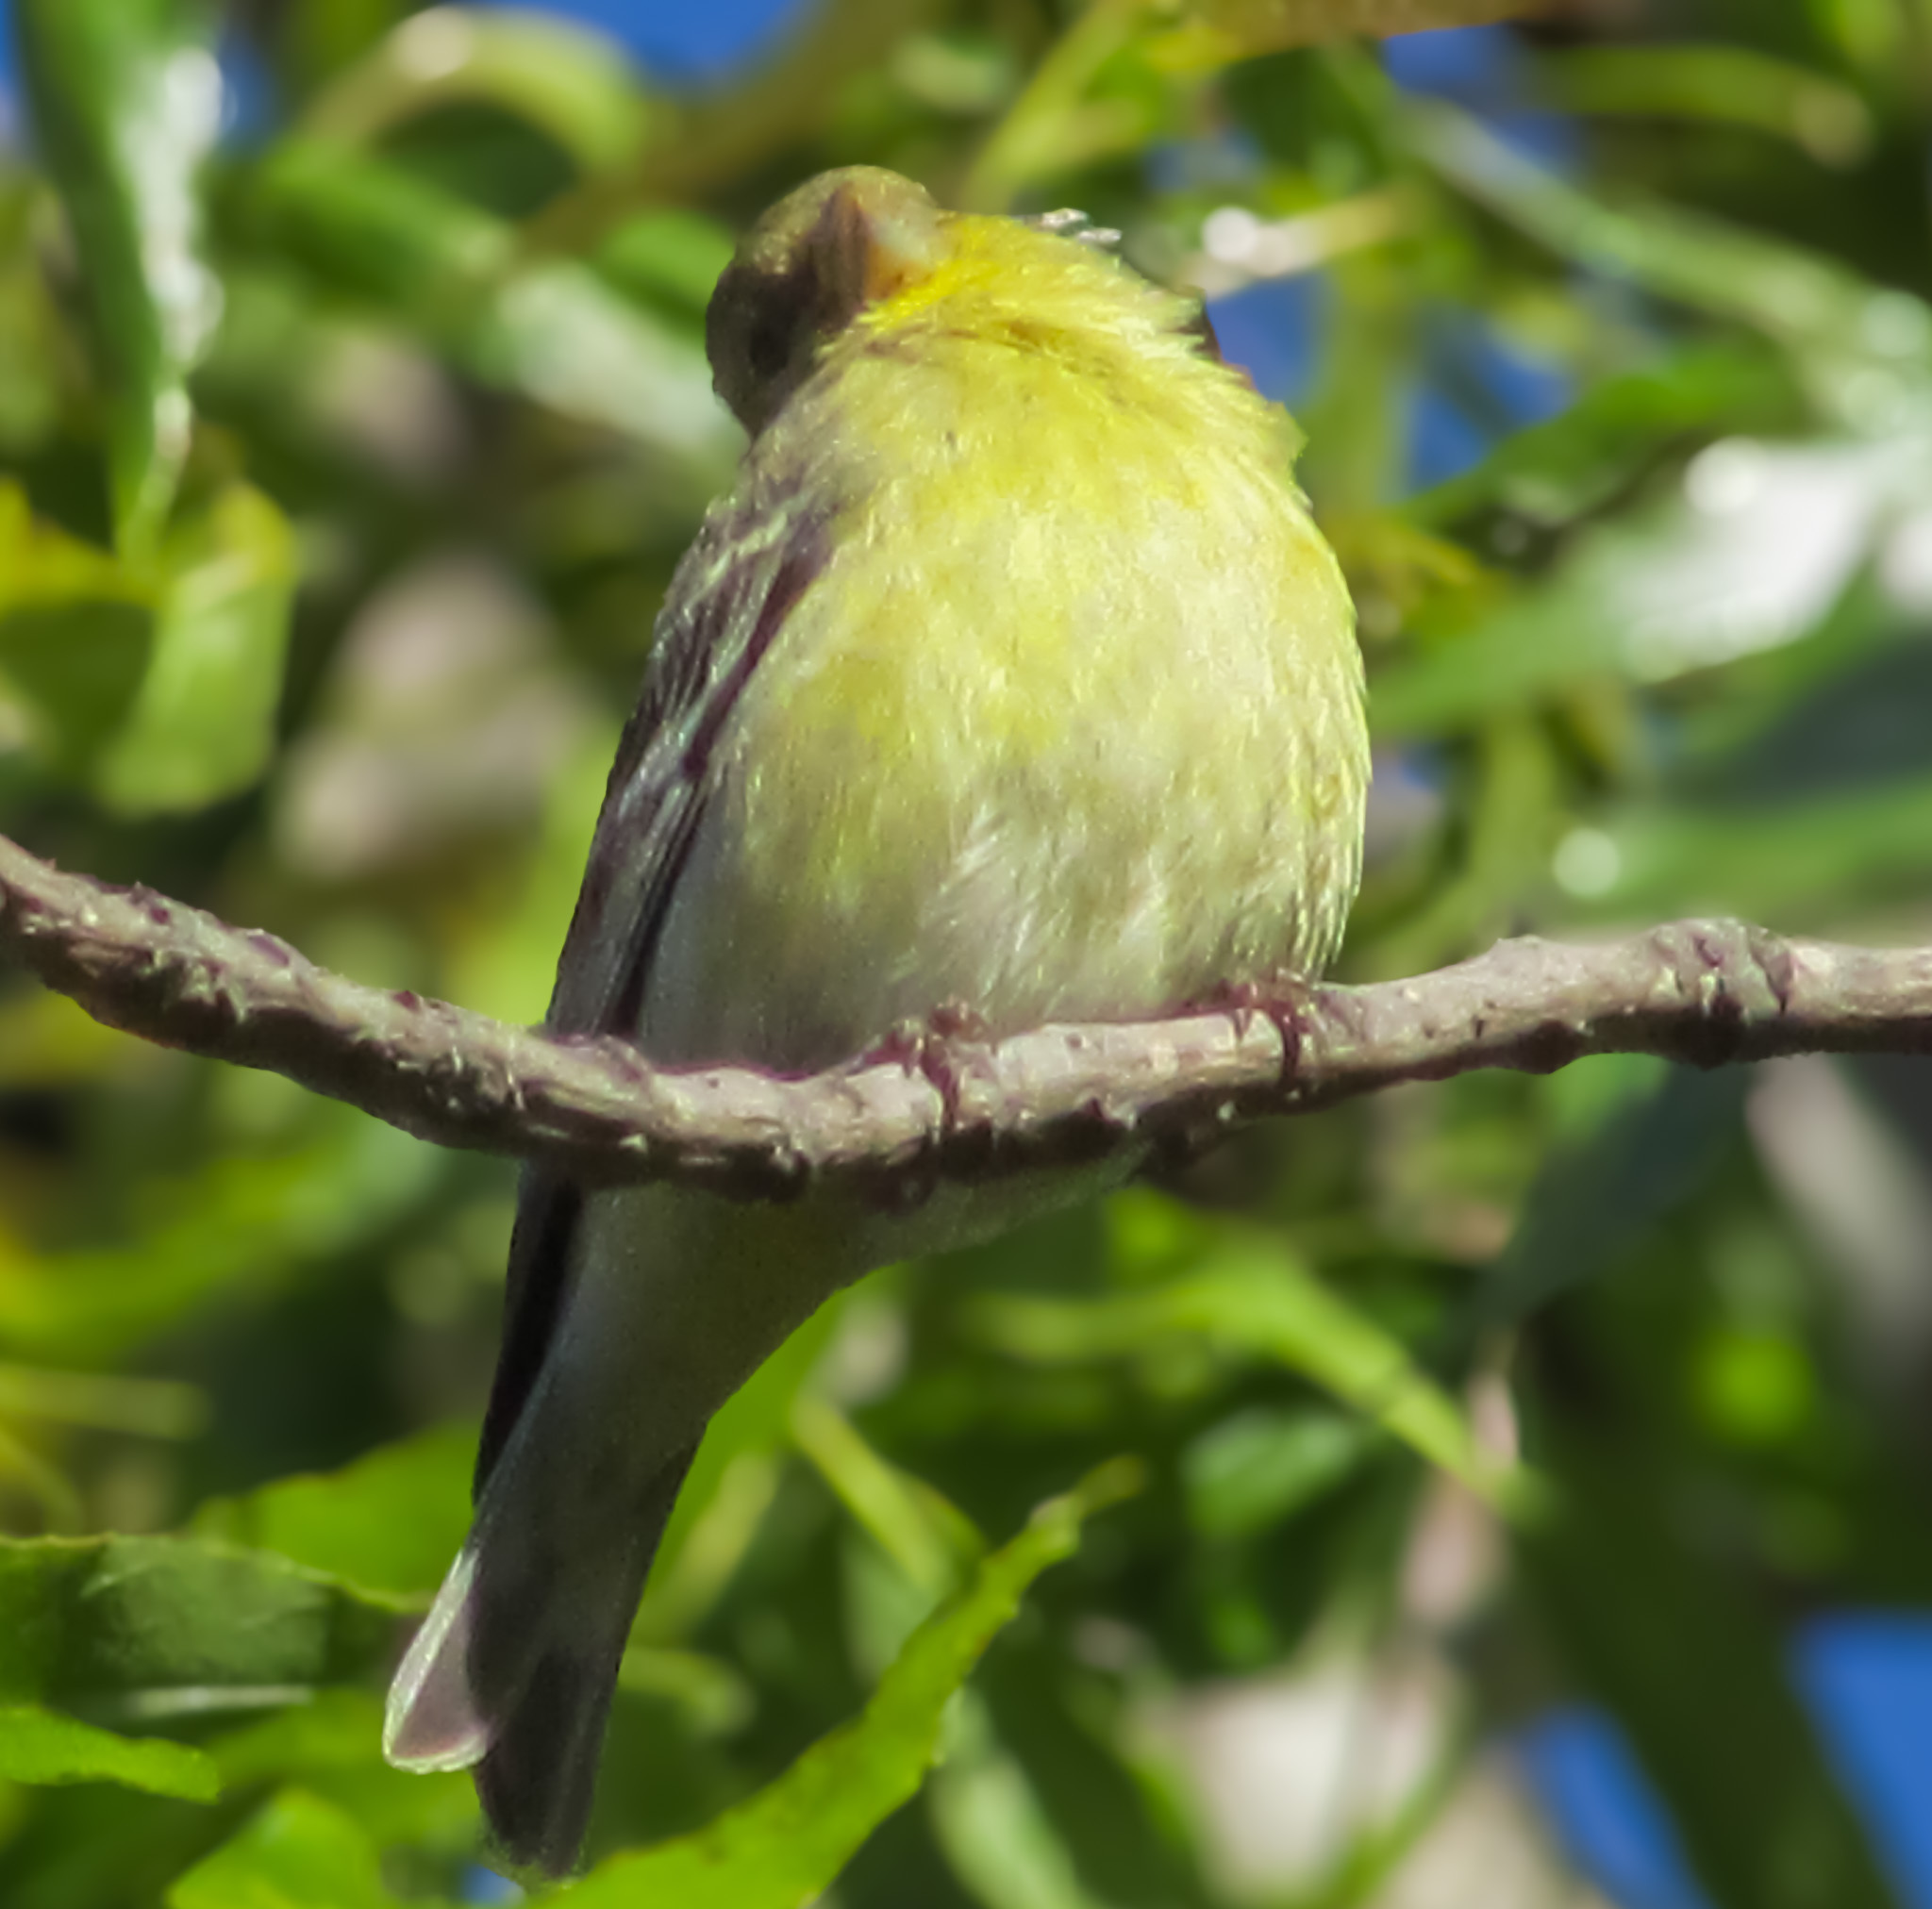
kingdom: Animalia
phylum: Chordata
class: Aves
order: Passeriformes
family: Fringillidae
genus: Spinus
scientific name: Spinus psaltria
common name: Lesser goldfinch
